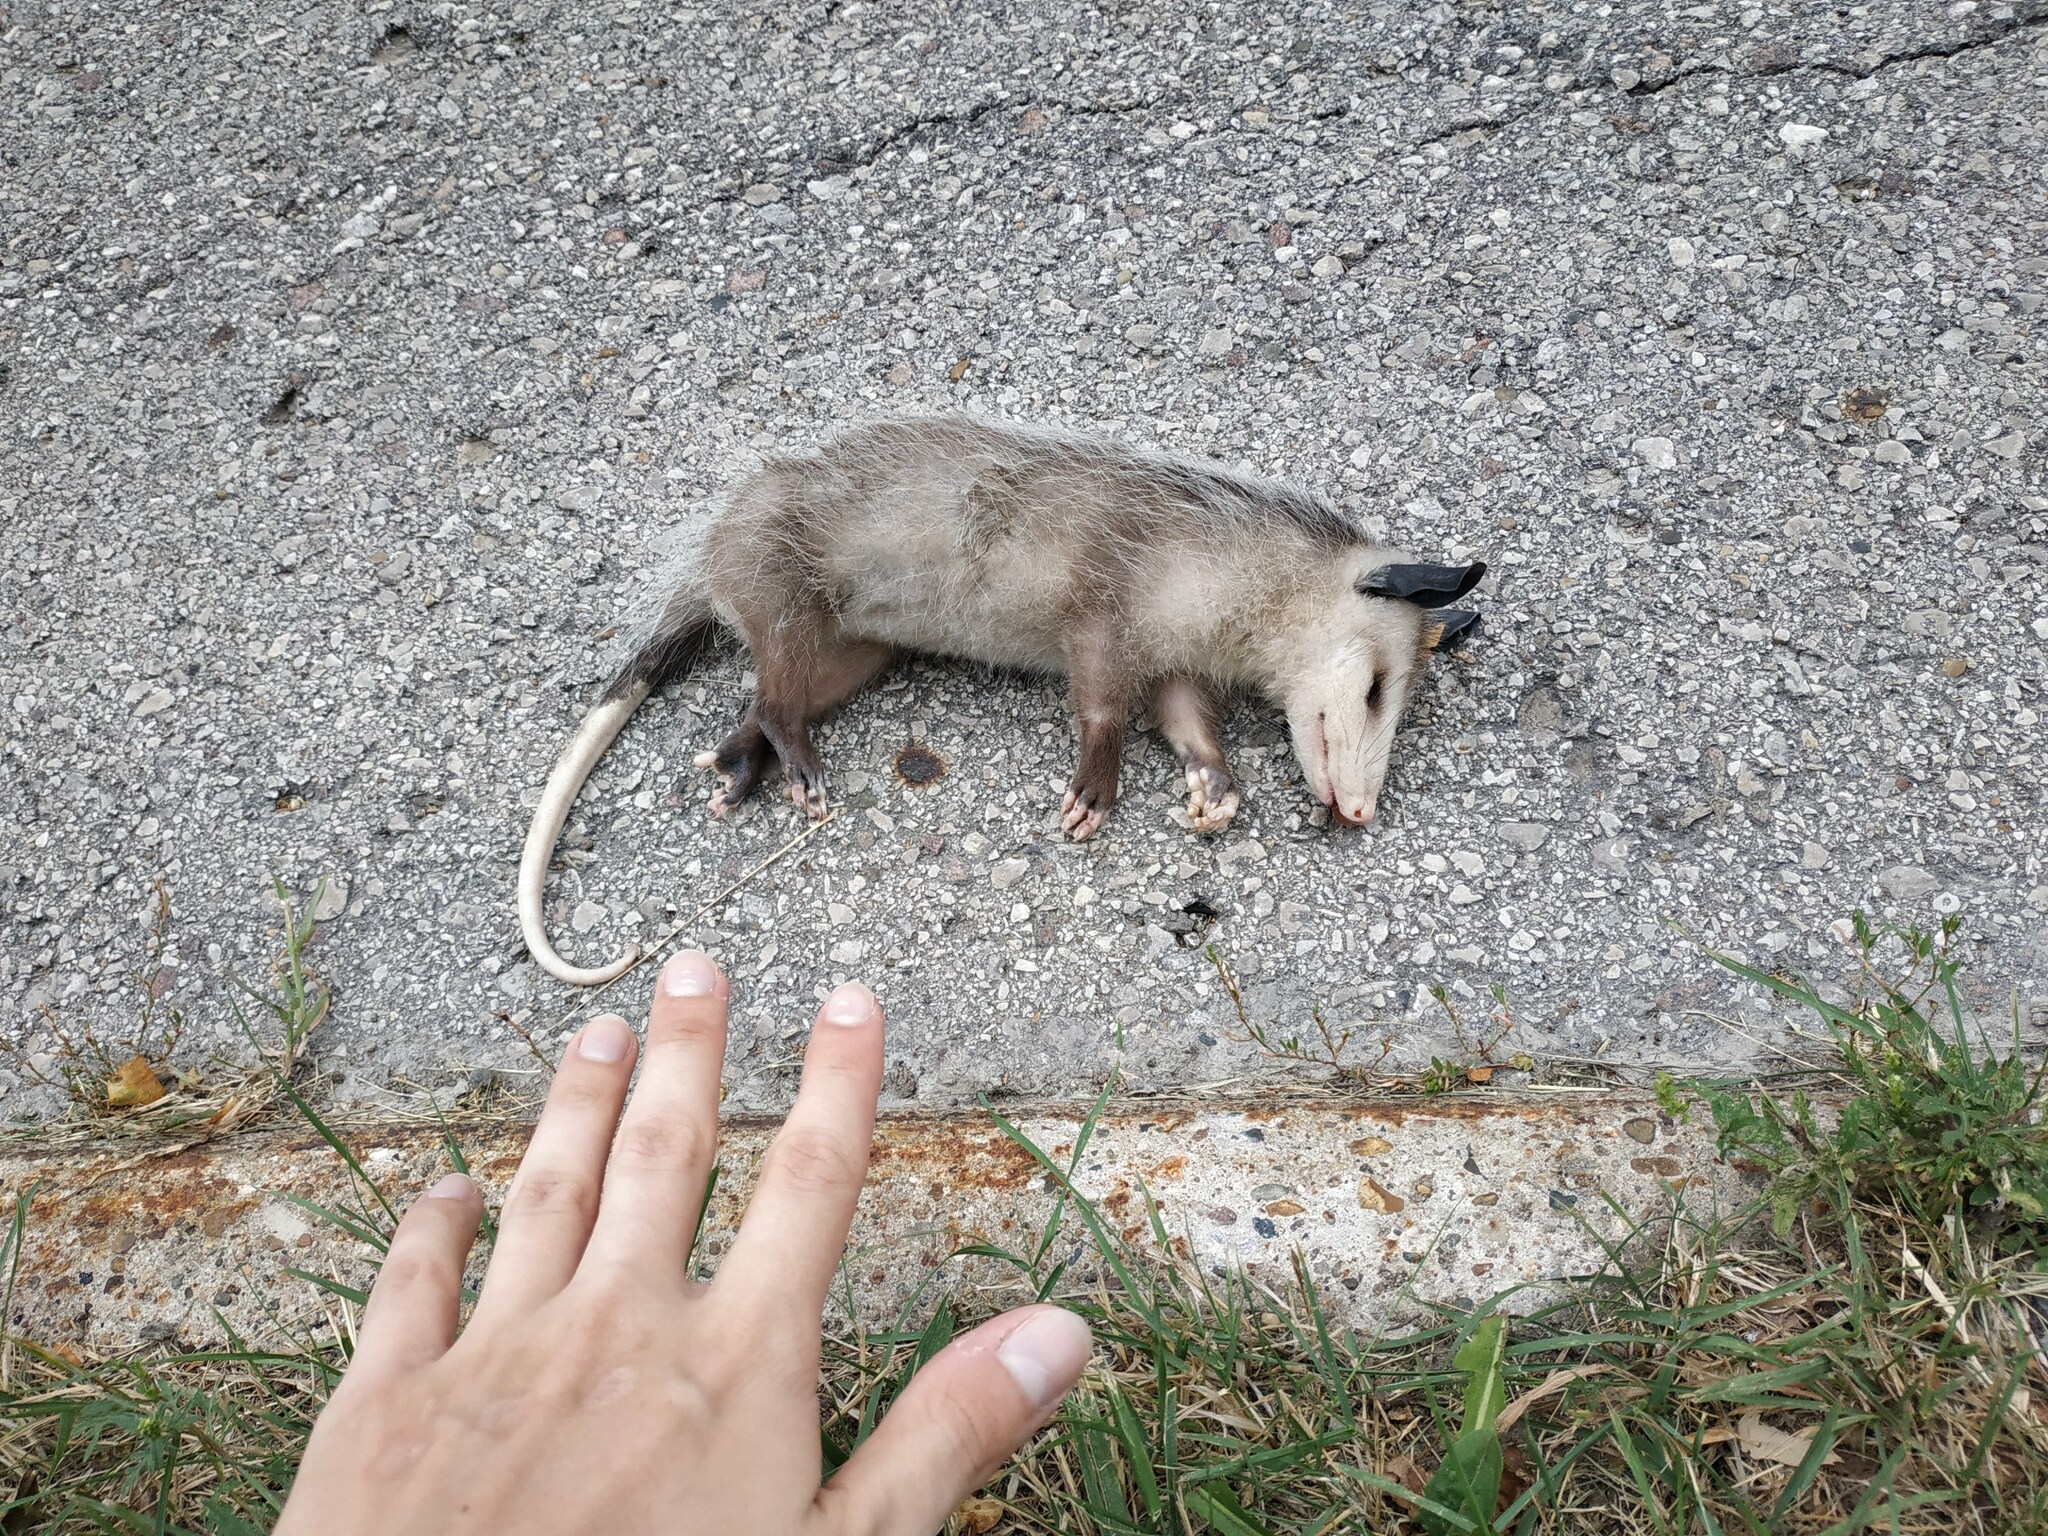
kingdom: Animalia
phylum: Chordata
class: Mammalia
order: Didelphimorphia
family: Didelphidae
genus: Didelphis
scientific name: Didelphis virginiana
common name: Virginia opossum
